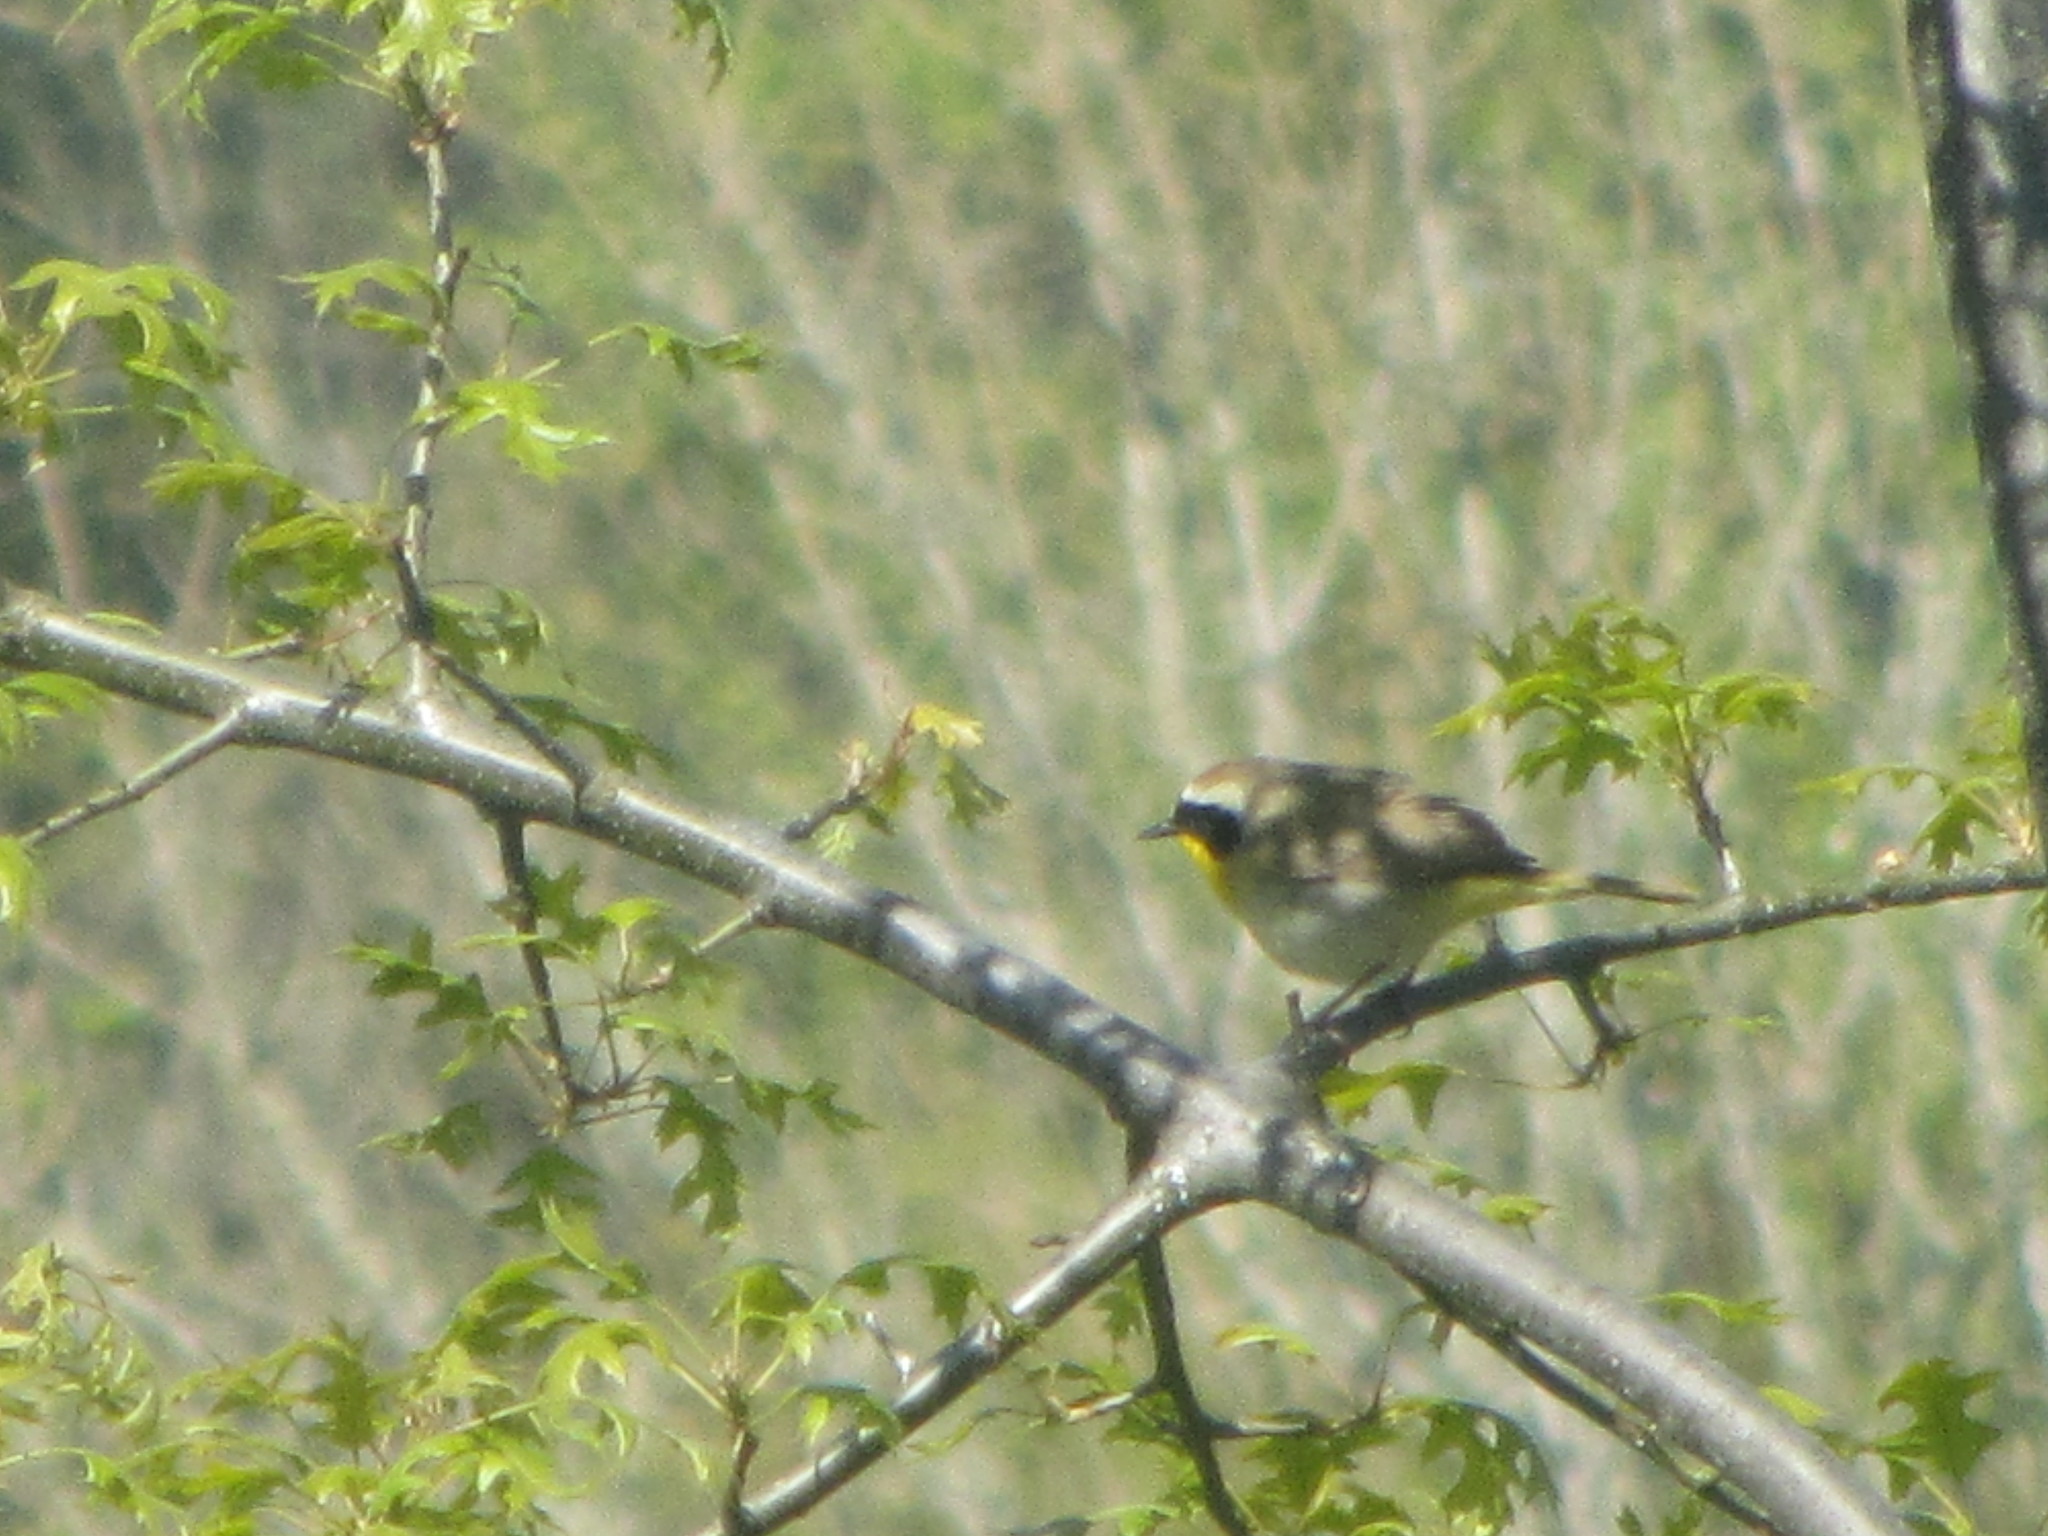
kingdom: Animalia
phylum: Chordata
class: Aves
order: Passeriformes
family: Parulidae
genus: Geothlypis
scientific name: Geothlypis trichas
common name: Common yellowthroat
